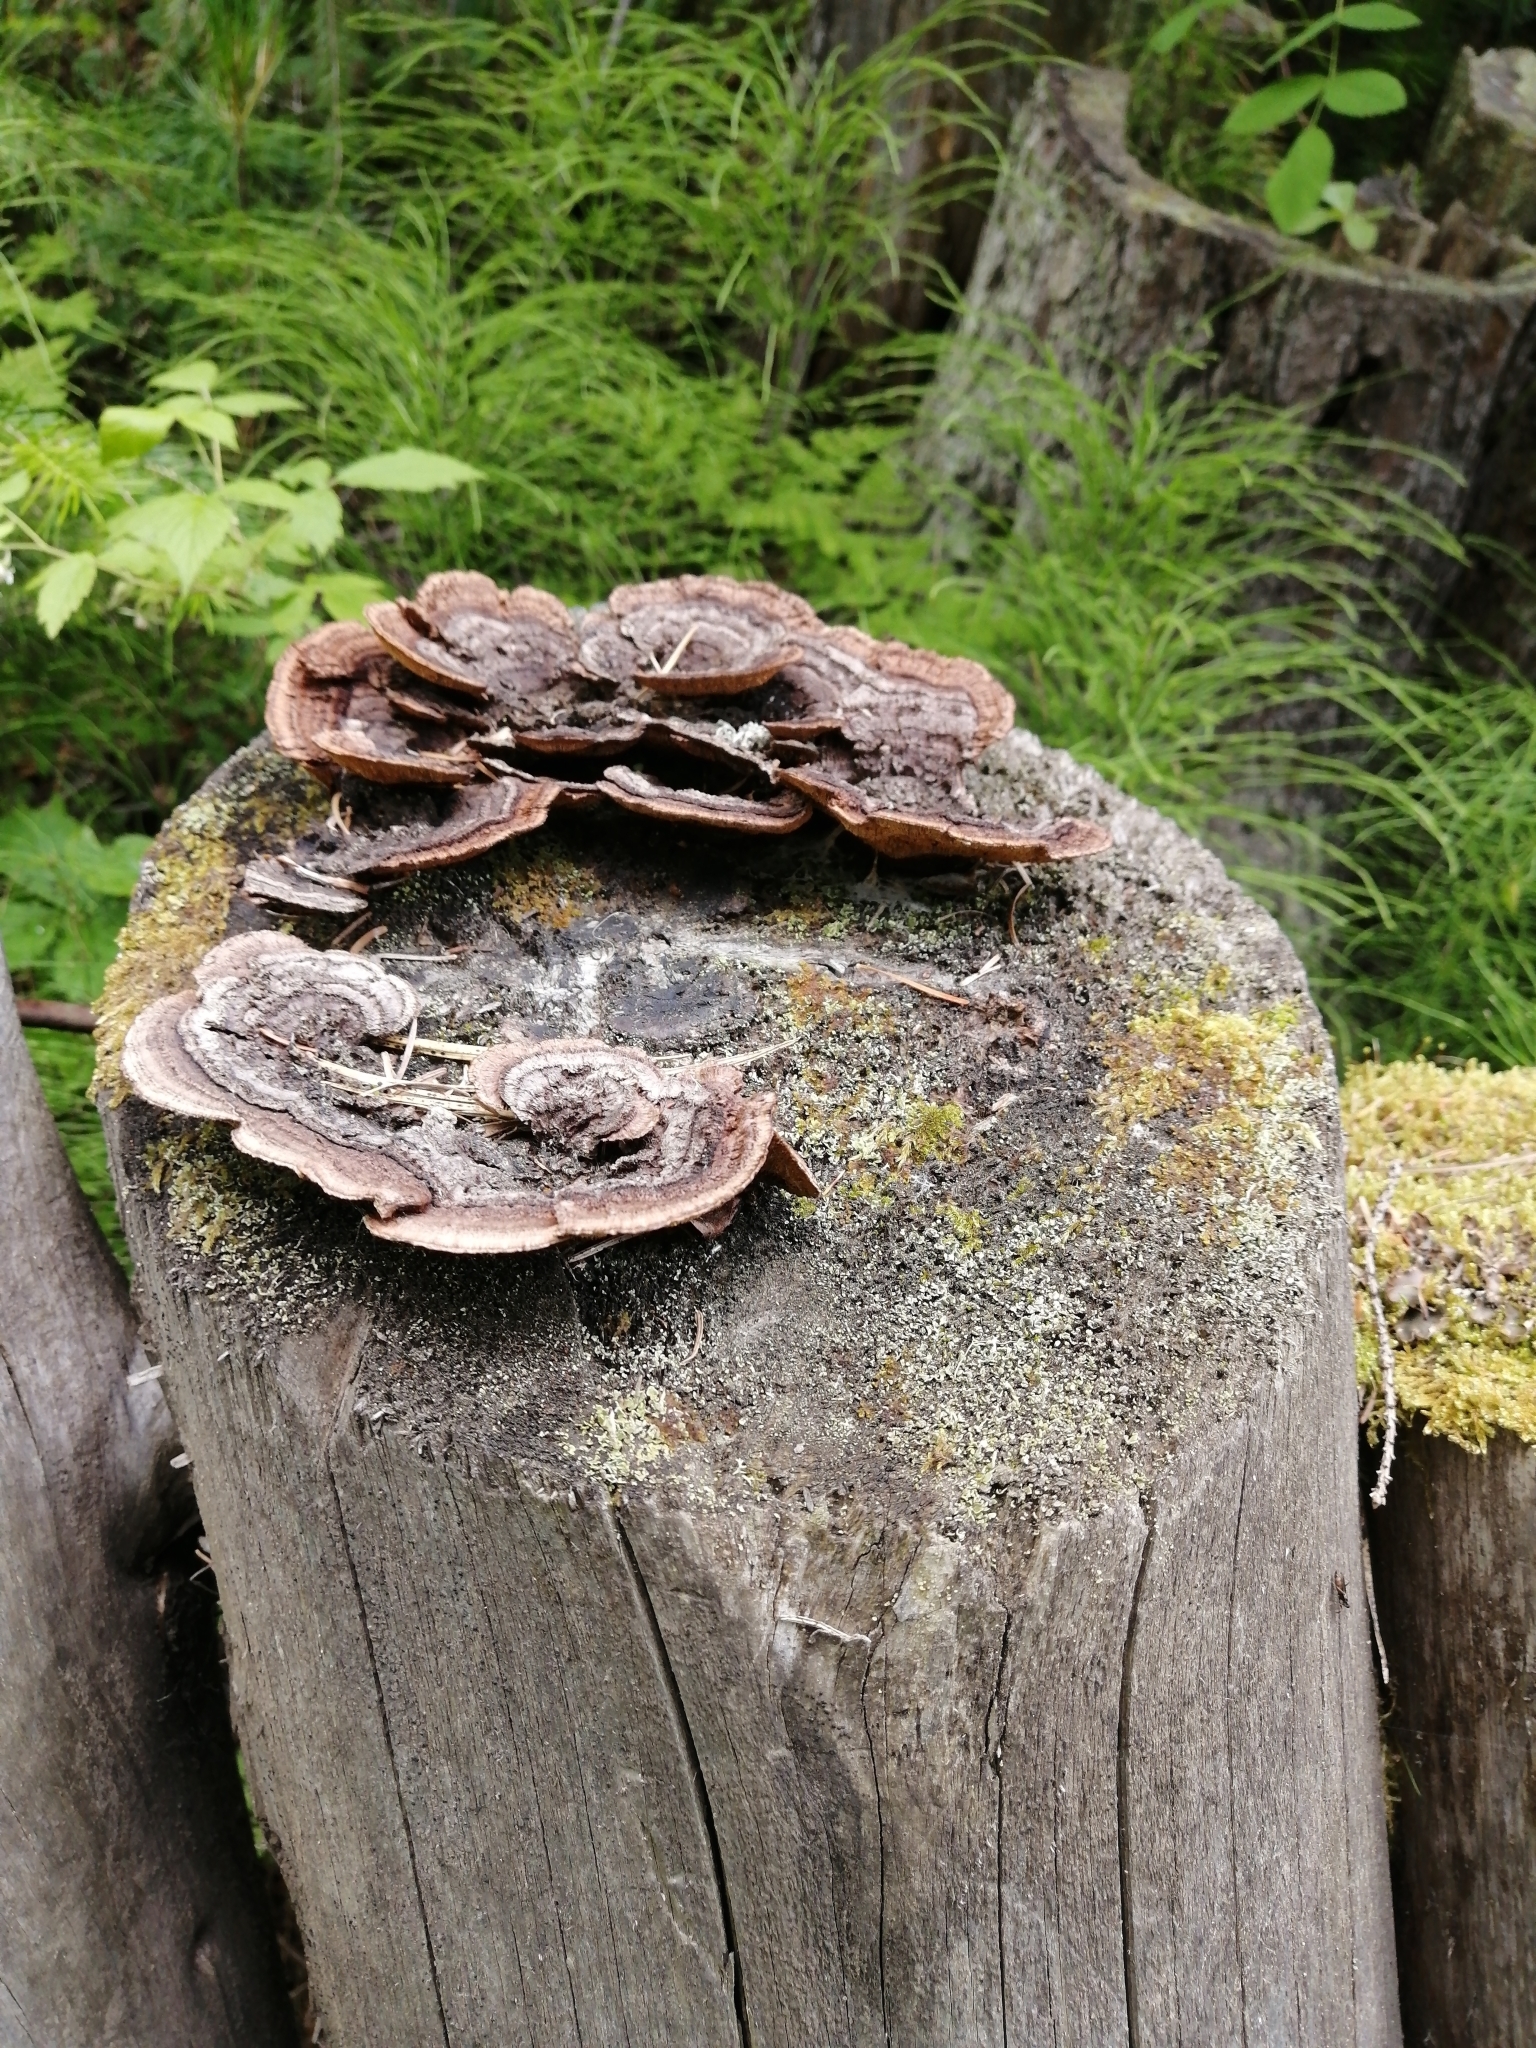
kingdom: Fungi
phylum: Basidiomycota
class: Agaricomycetes
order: Gloeophyllales
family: Gloeophyllaceae
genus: Gloeophyllum
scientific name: Gloeophyllum sepiarium
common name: Conifer mazegill
